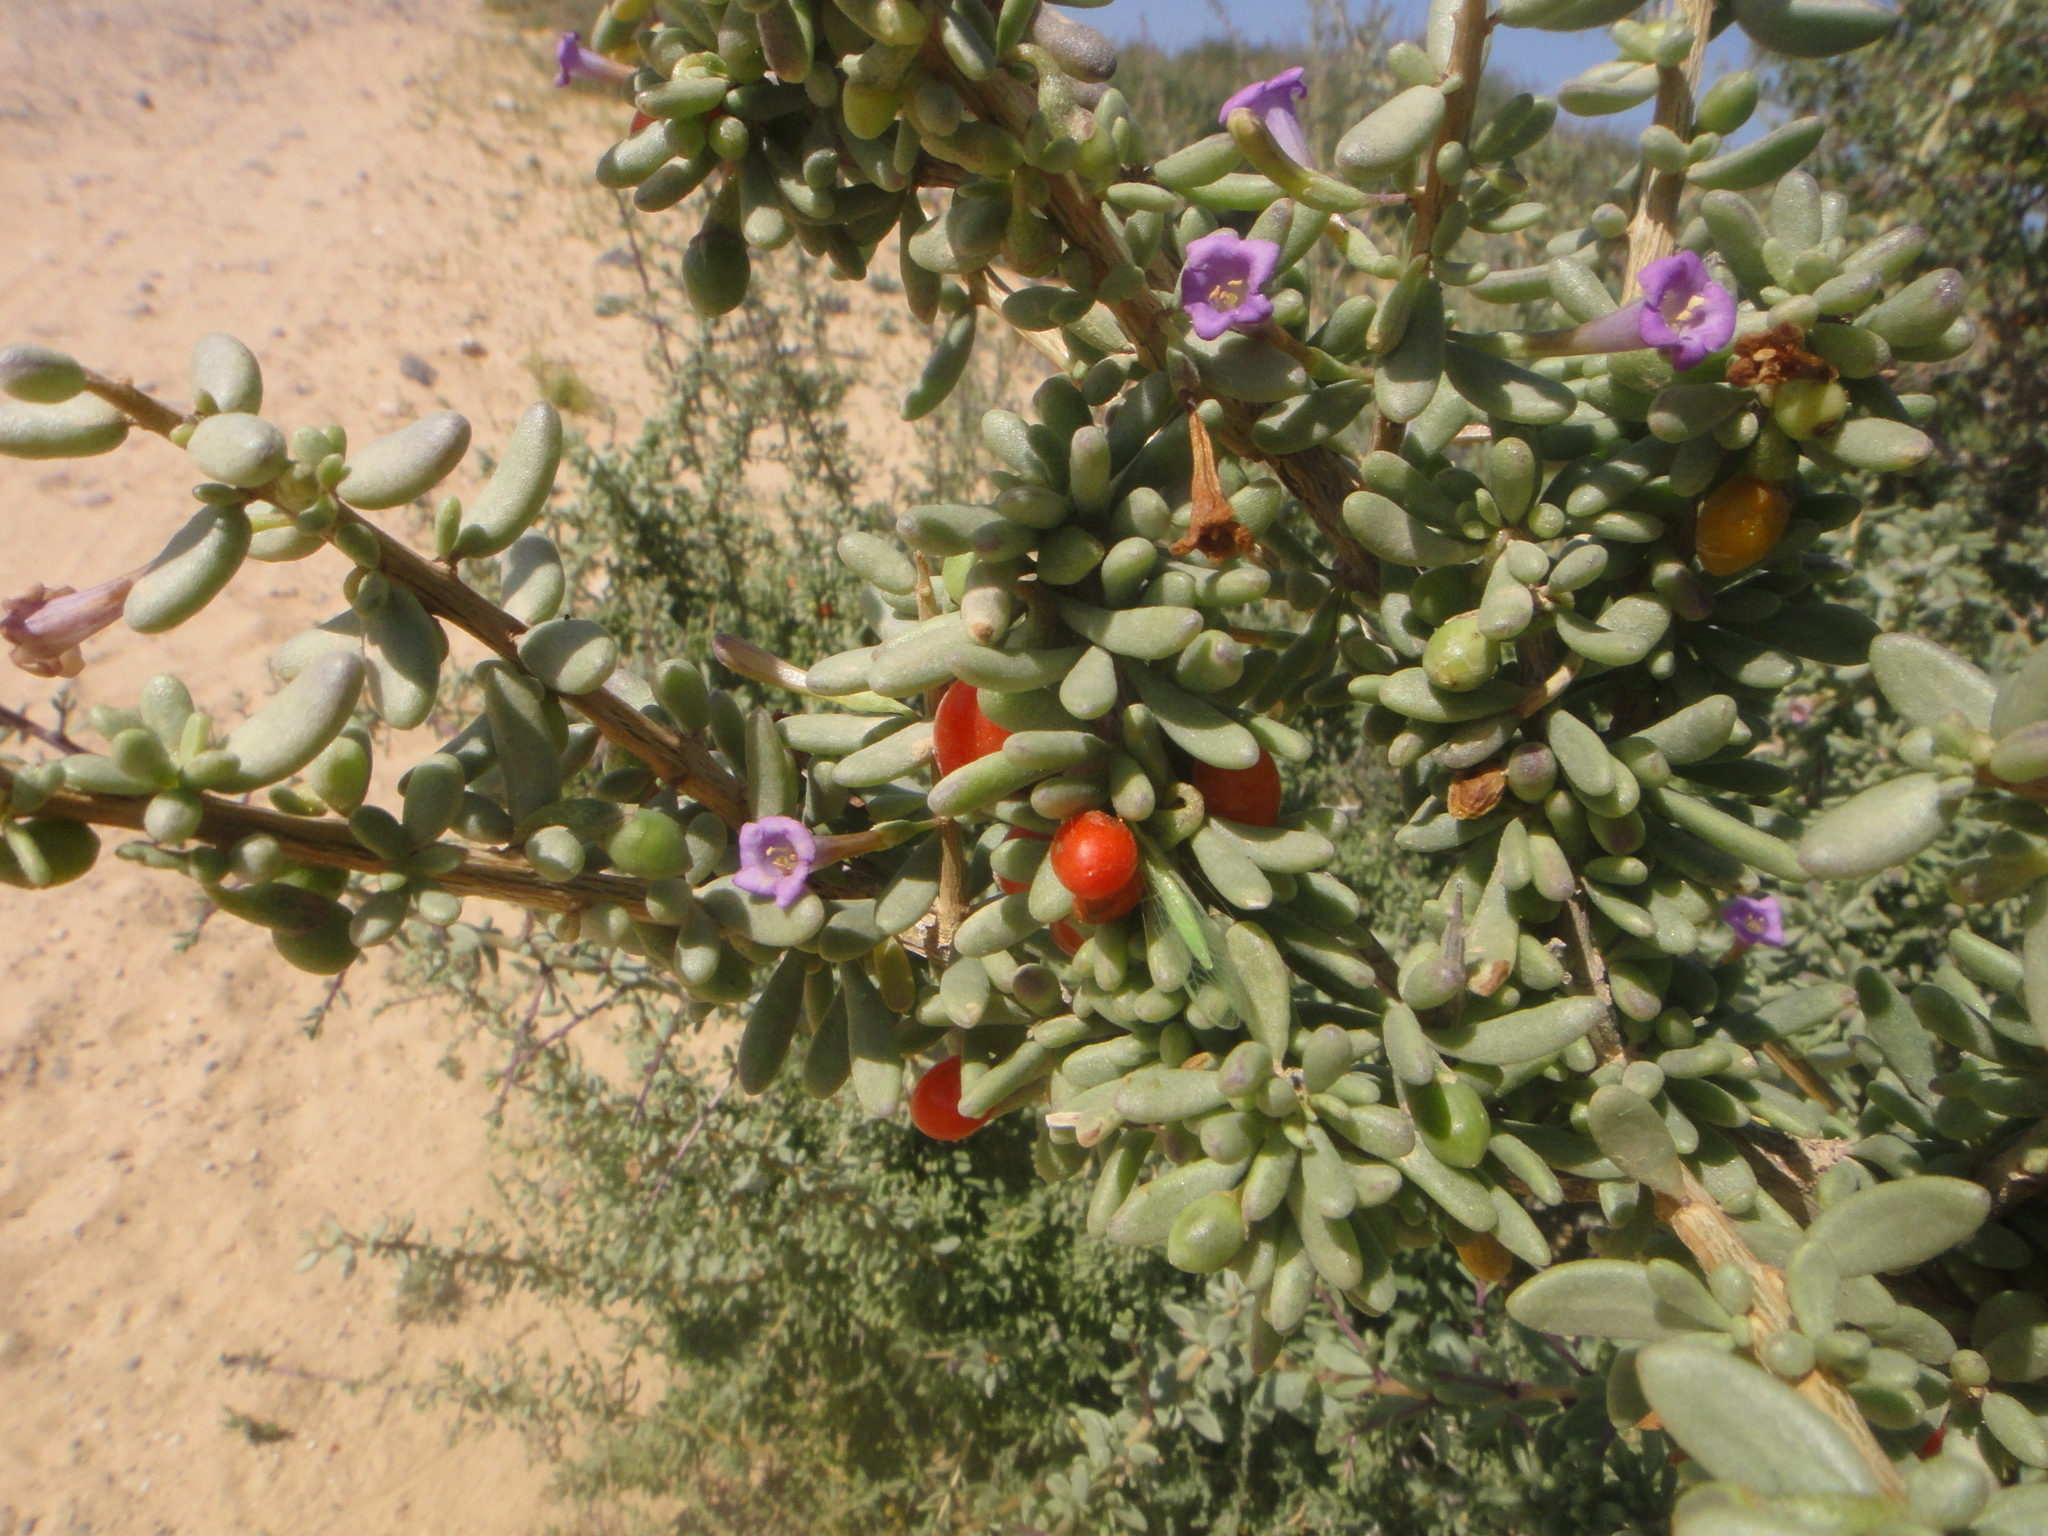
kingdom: Plantae
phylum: Tracheophyta
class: Magnoliopsida
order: Solanales
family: Solanaceae
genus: Lycium
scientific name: Lycium intricatum
